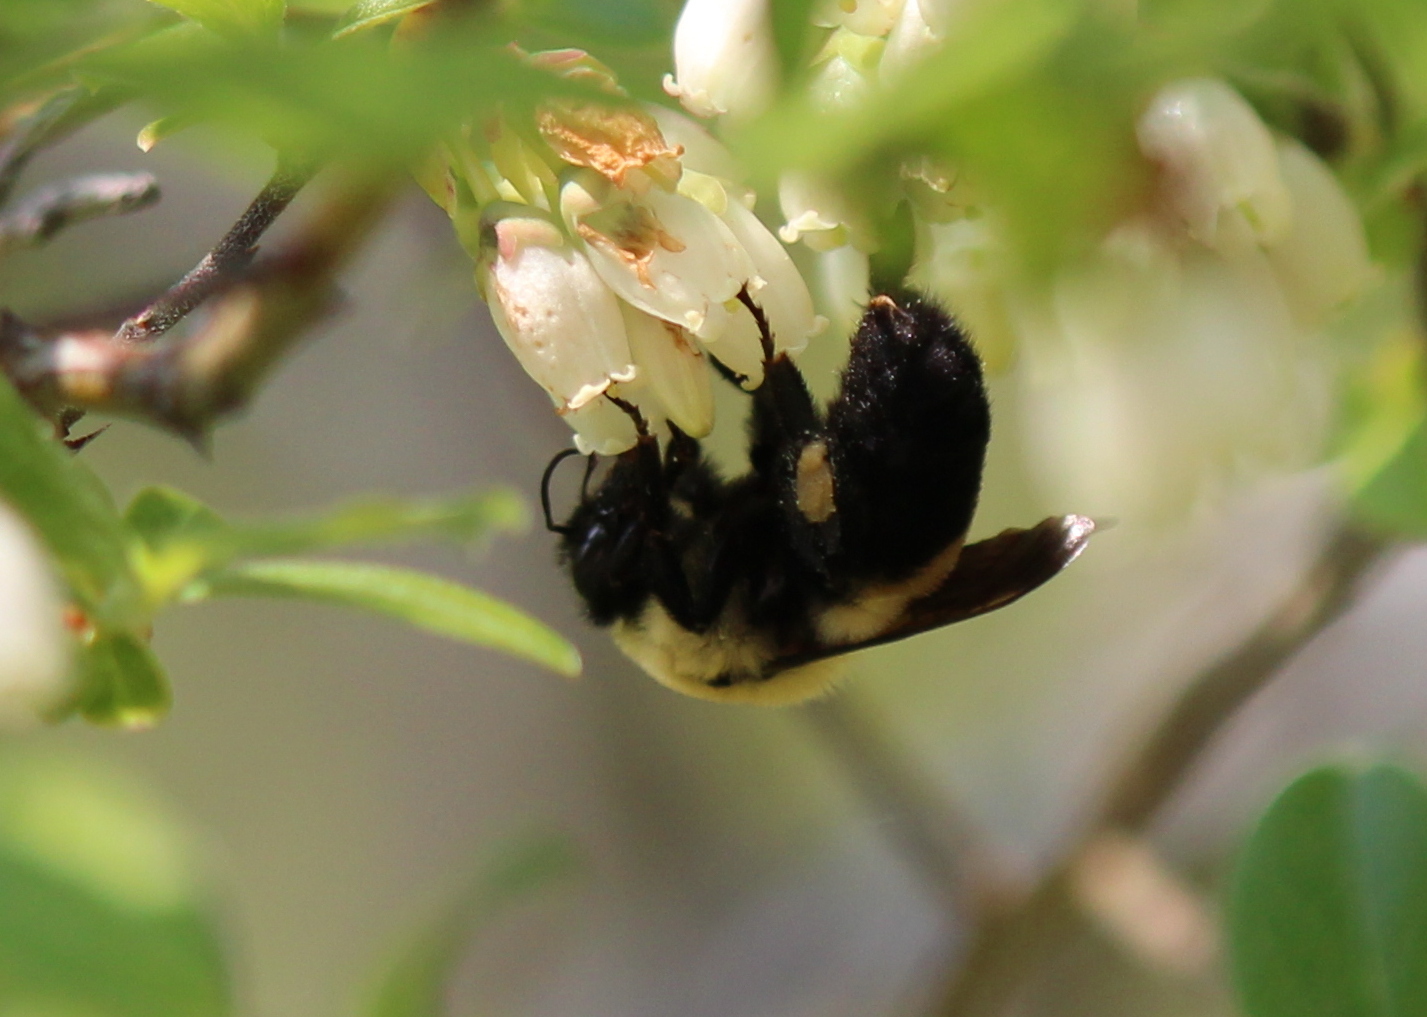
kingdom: Animalia
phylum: Arthropoda
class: Insecta
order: Hymenoptera
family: Apidae
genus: Bombus
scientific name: Bombus griseocollis
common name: Brown-belted bumble bee
